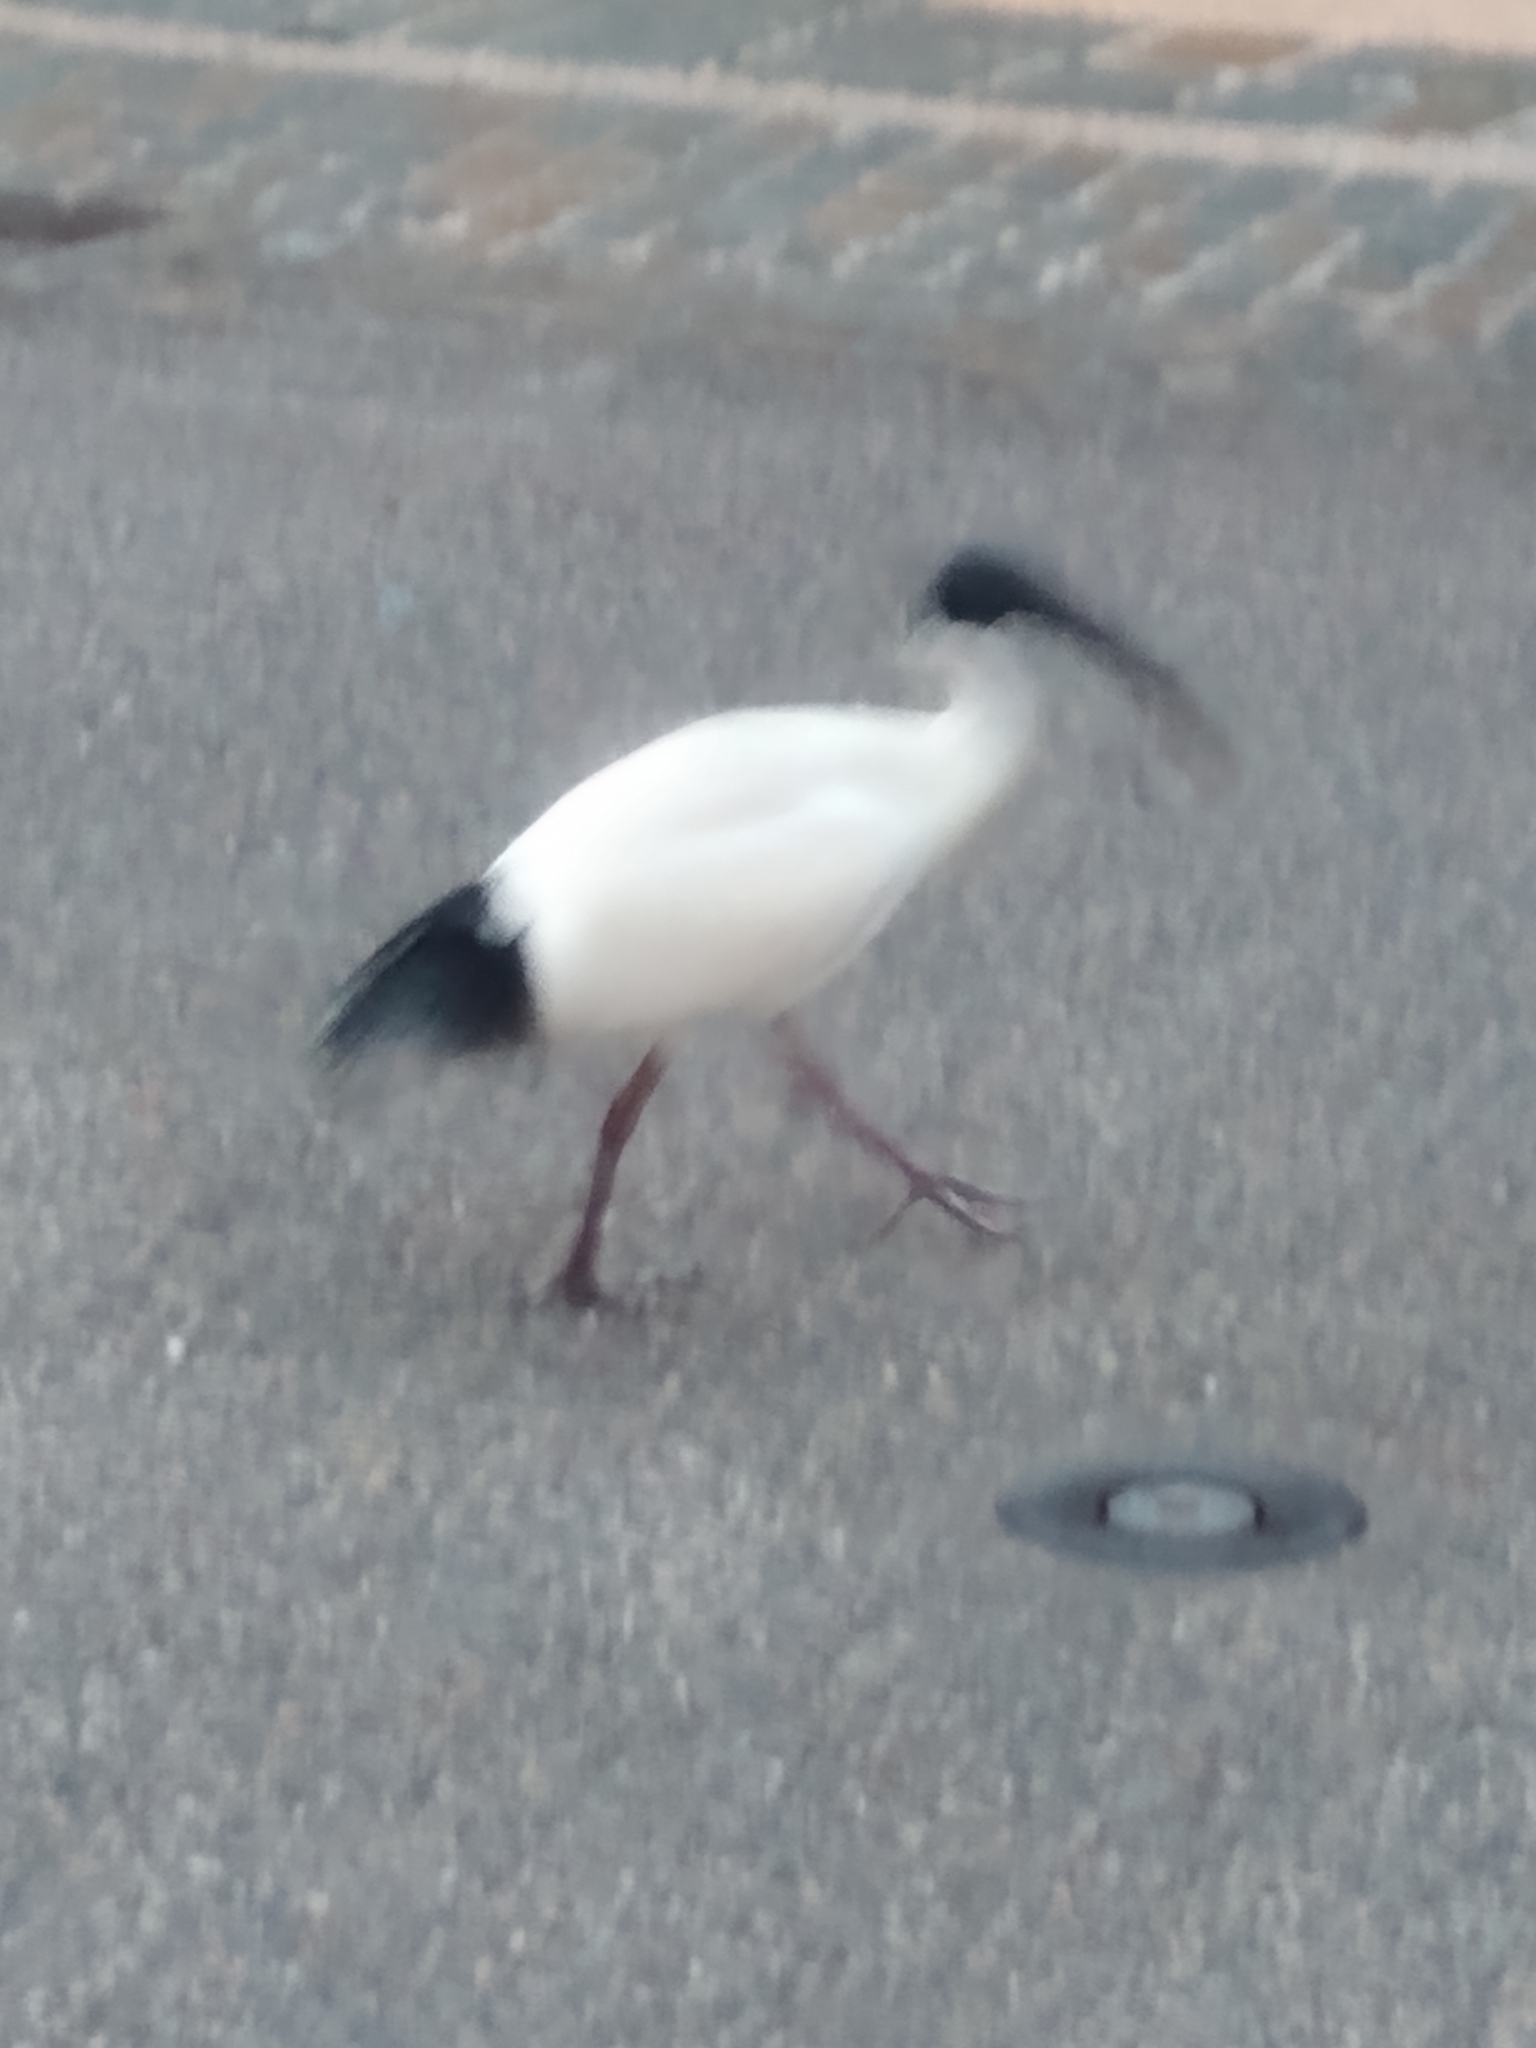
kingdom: Animalia
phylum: Chordata
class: Aves
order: Pelecaniformes
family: Threskiornithidae
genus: Threskiornis
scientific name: Threskiornis molucca
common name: Australian white ibis
